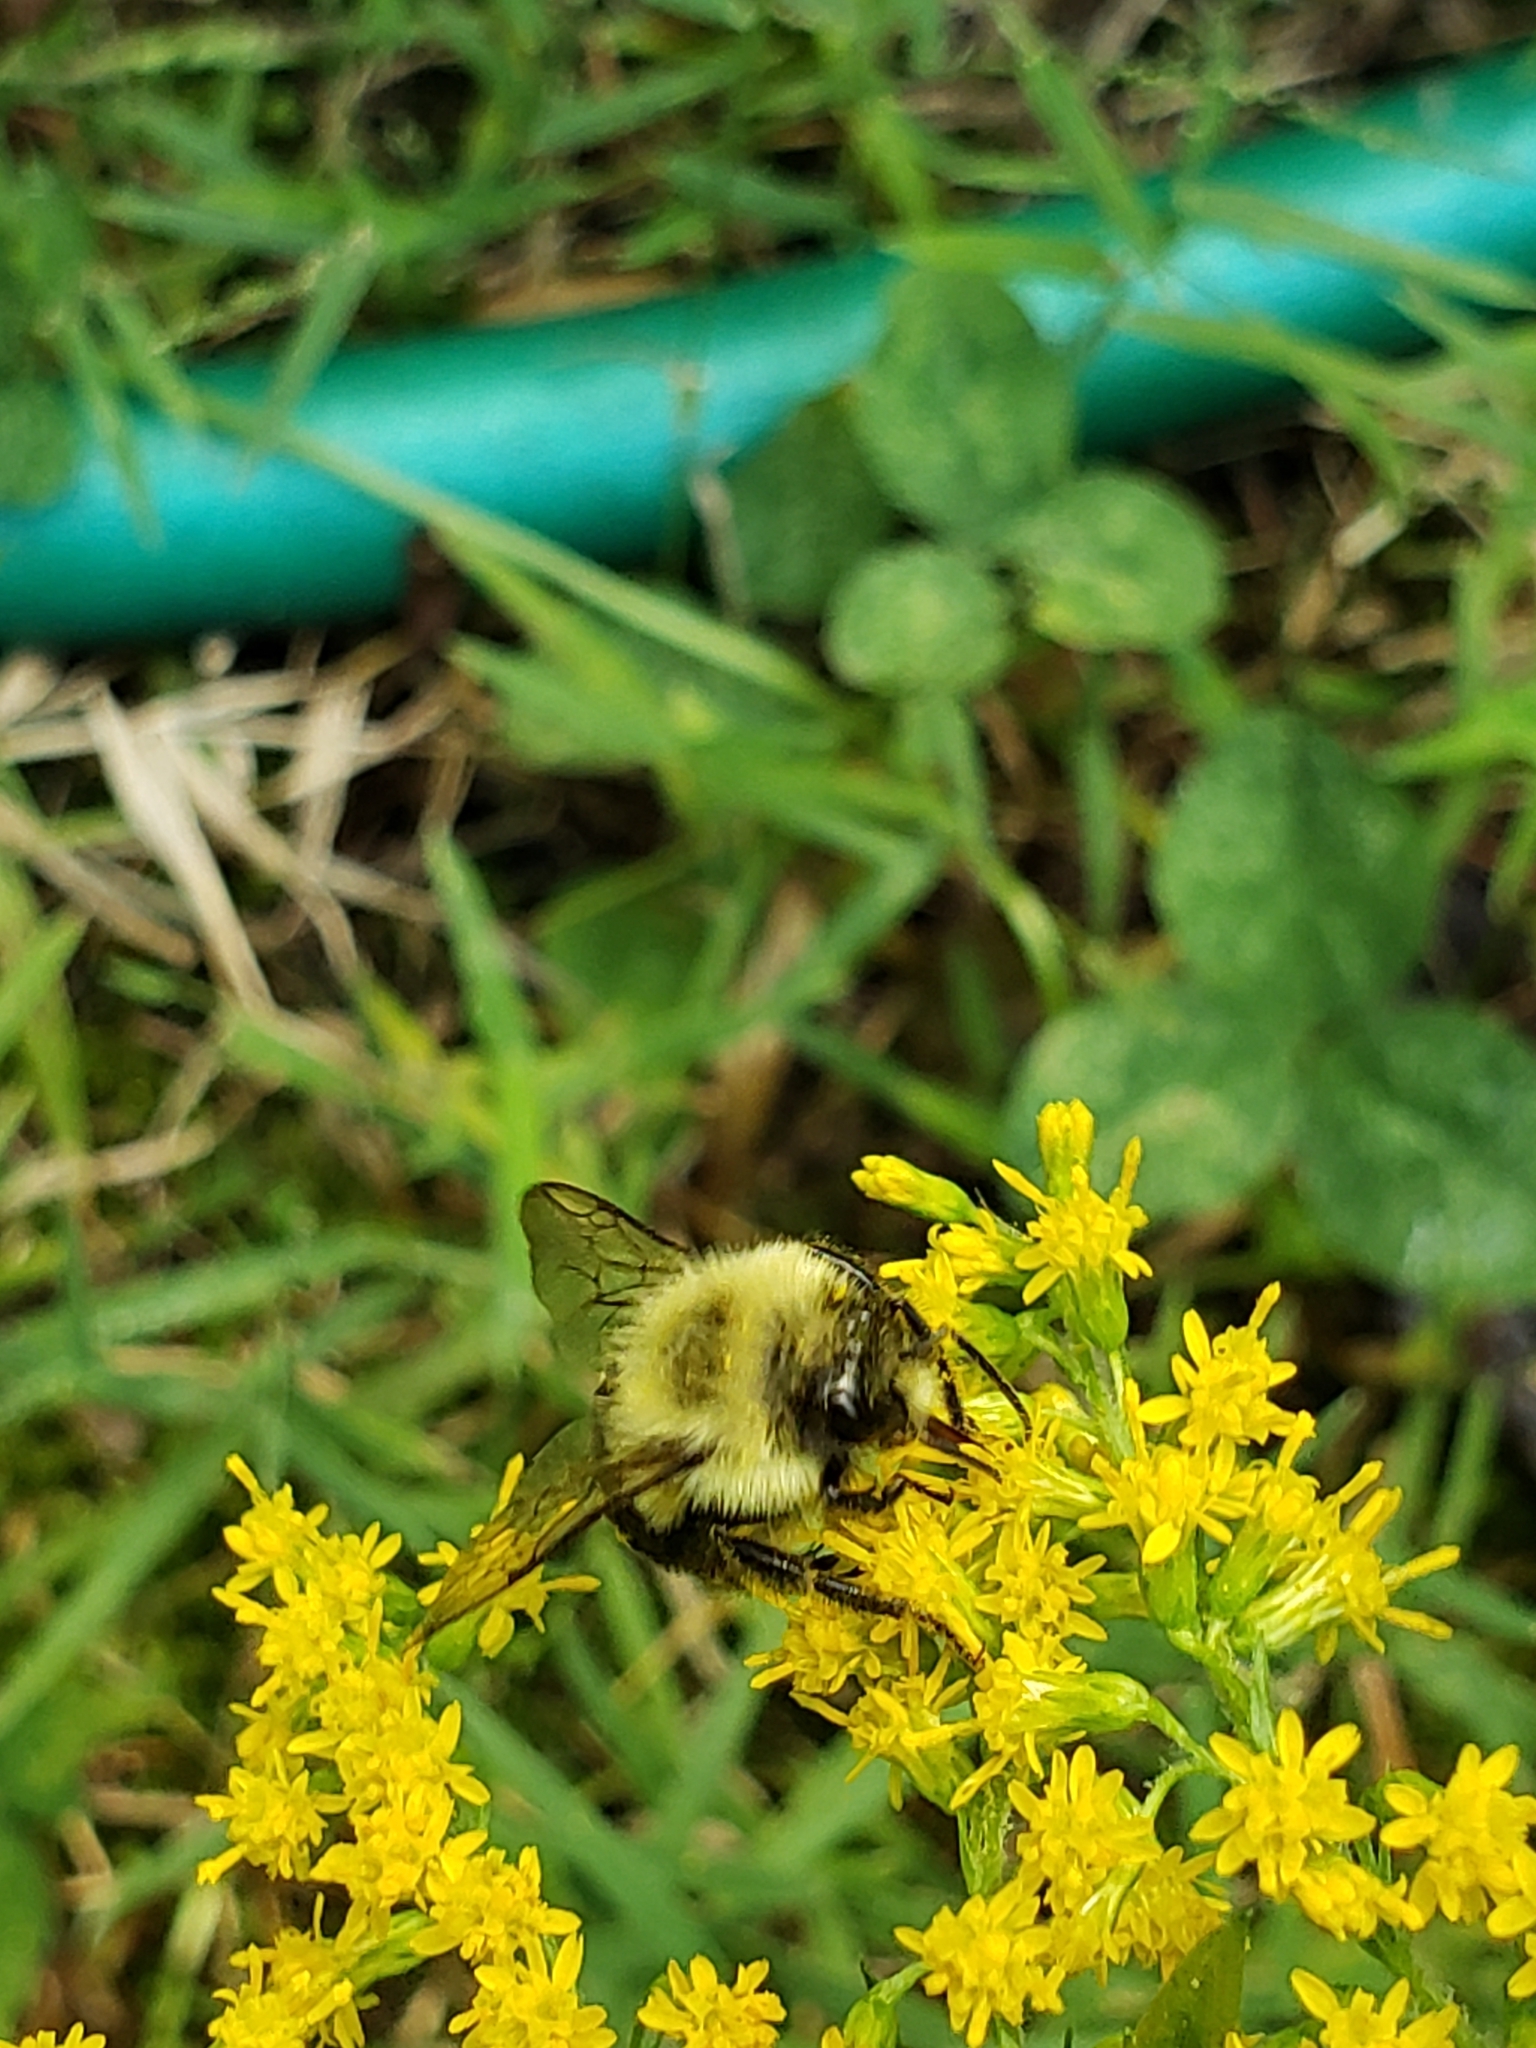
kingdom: Animalia
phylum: Arthropoda
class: Insecta
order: Hymenoptera
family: Apidae
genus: Bombus
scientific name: Bombus impatiens
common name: Common eastern bumble bee
